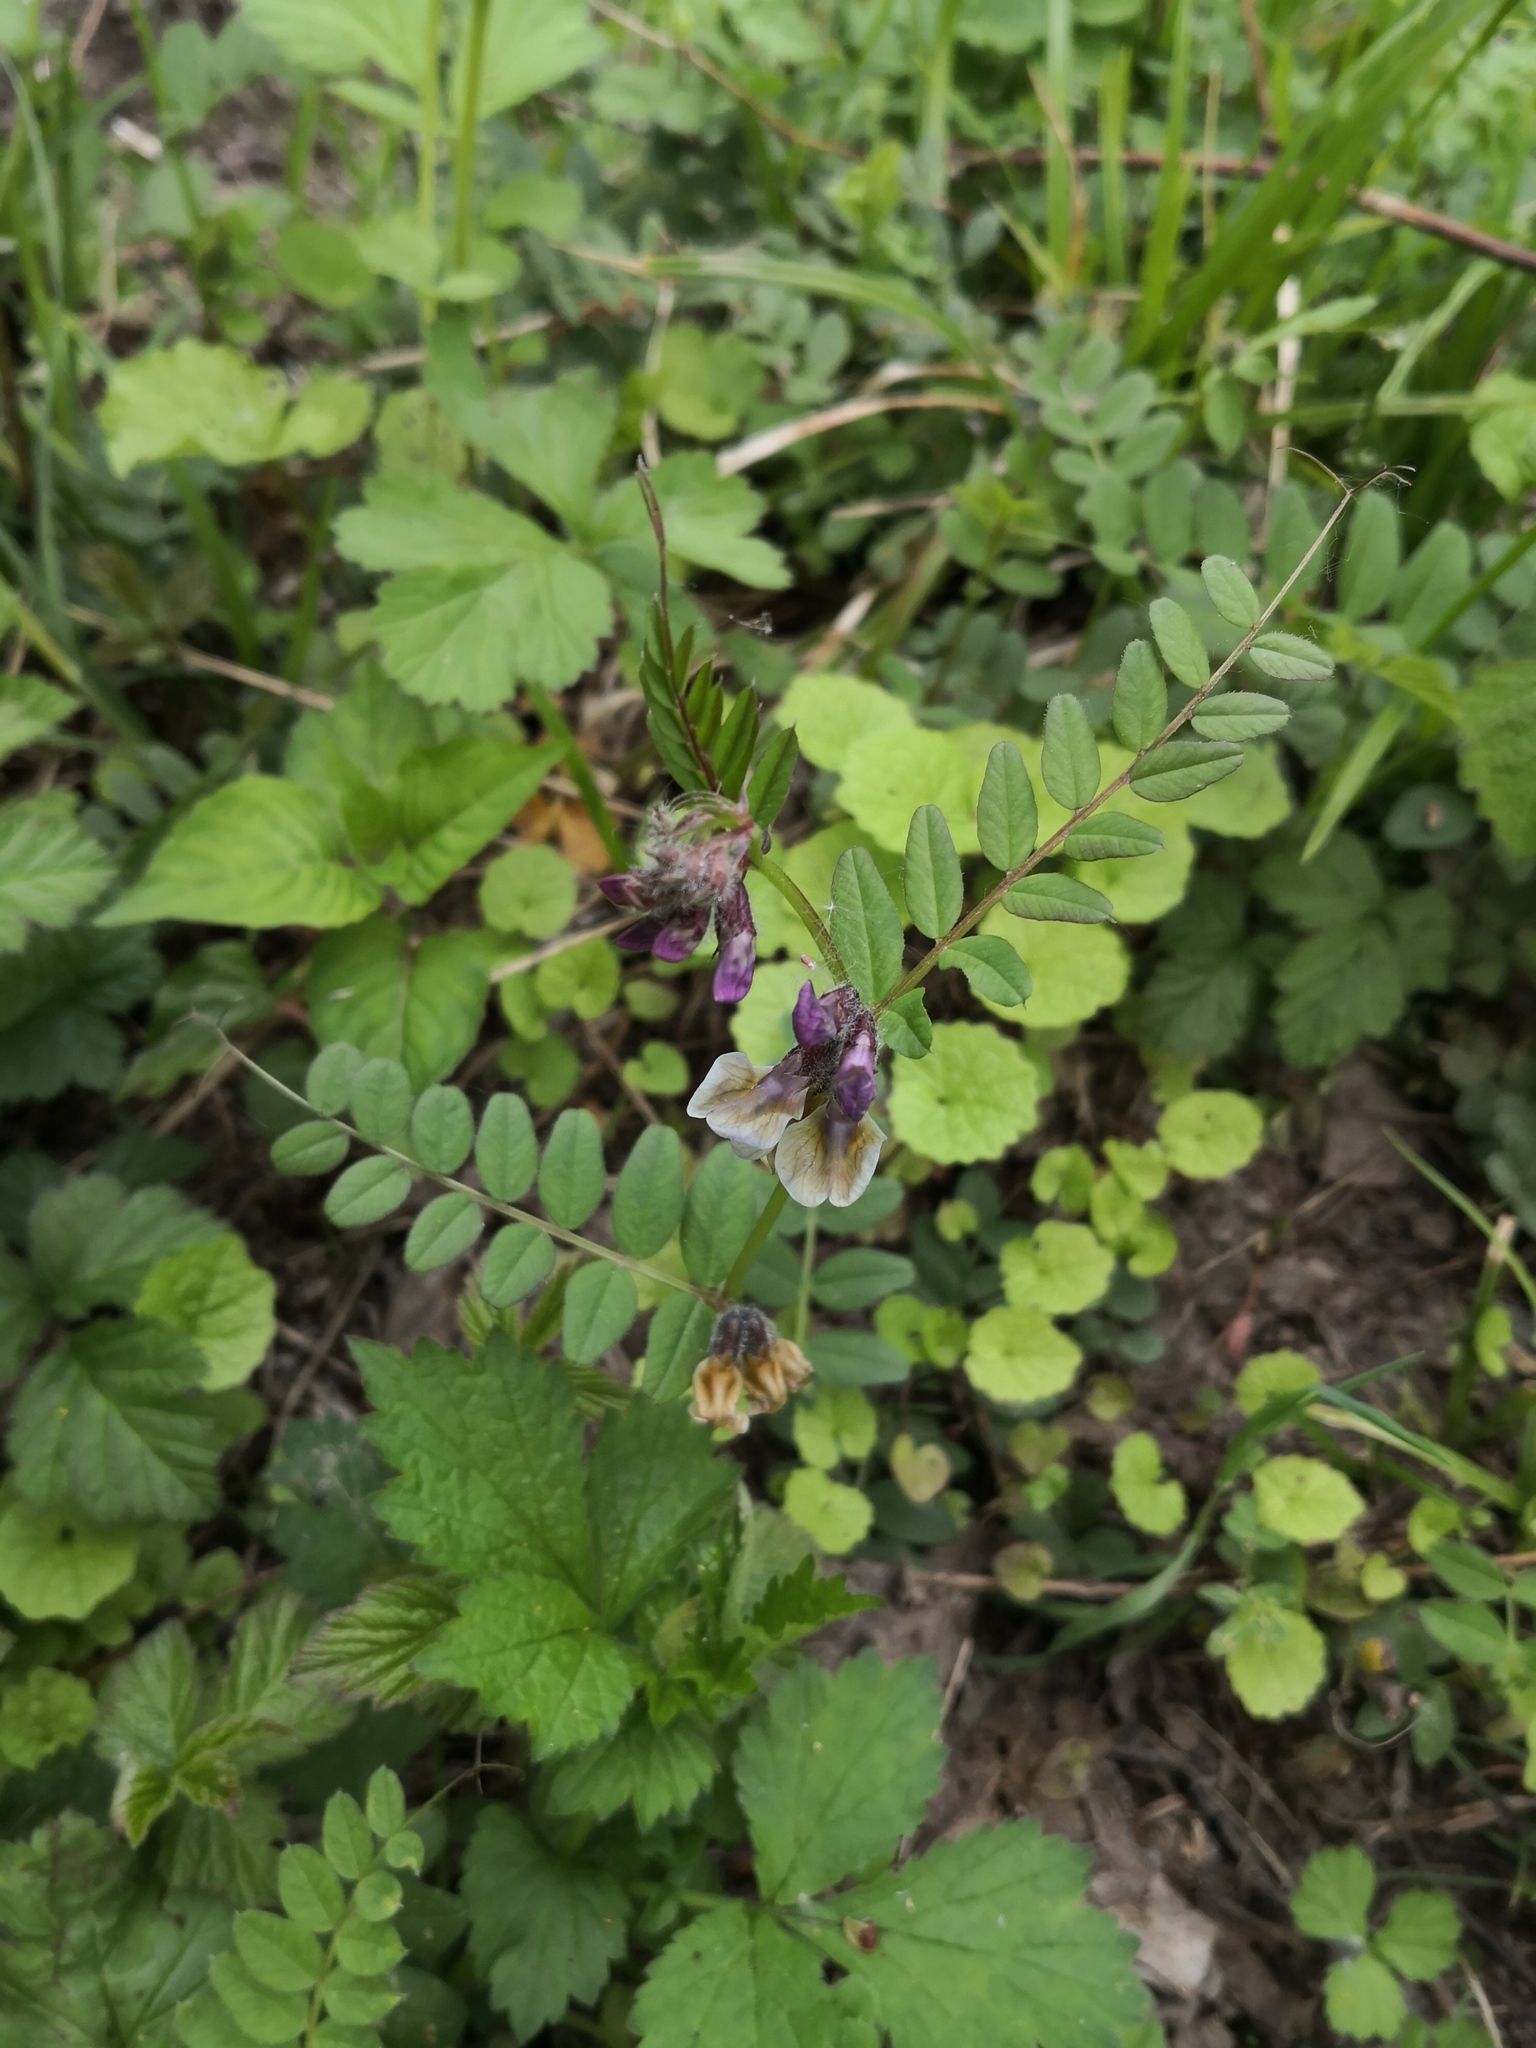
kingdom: Plantae
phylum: Tracheophyta
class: Magnoliopsida
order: Fabales
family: Fabaceae
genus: Vicia
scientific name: Vicia sepium
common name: Bush vetch
